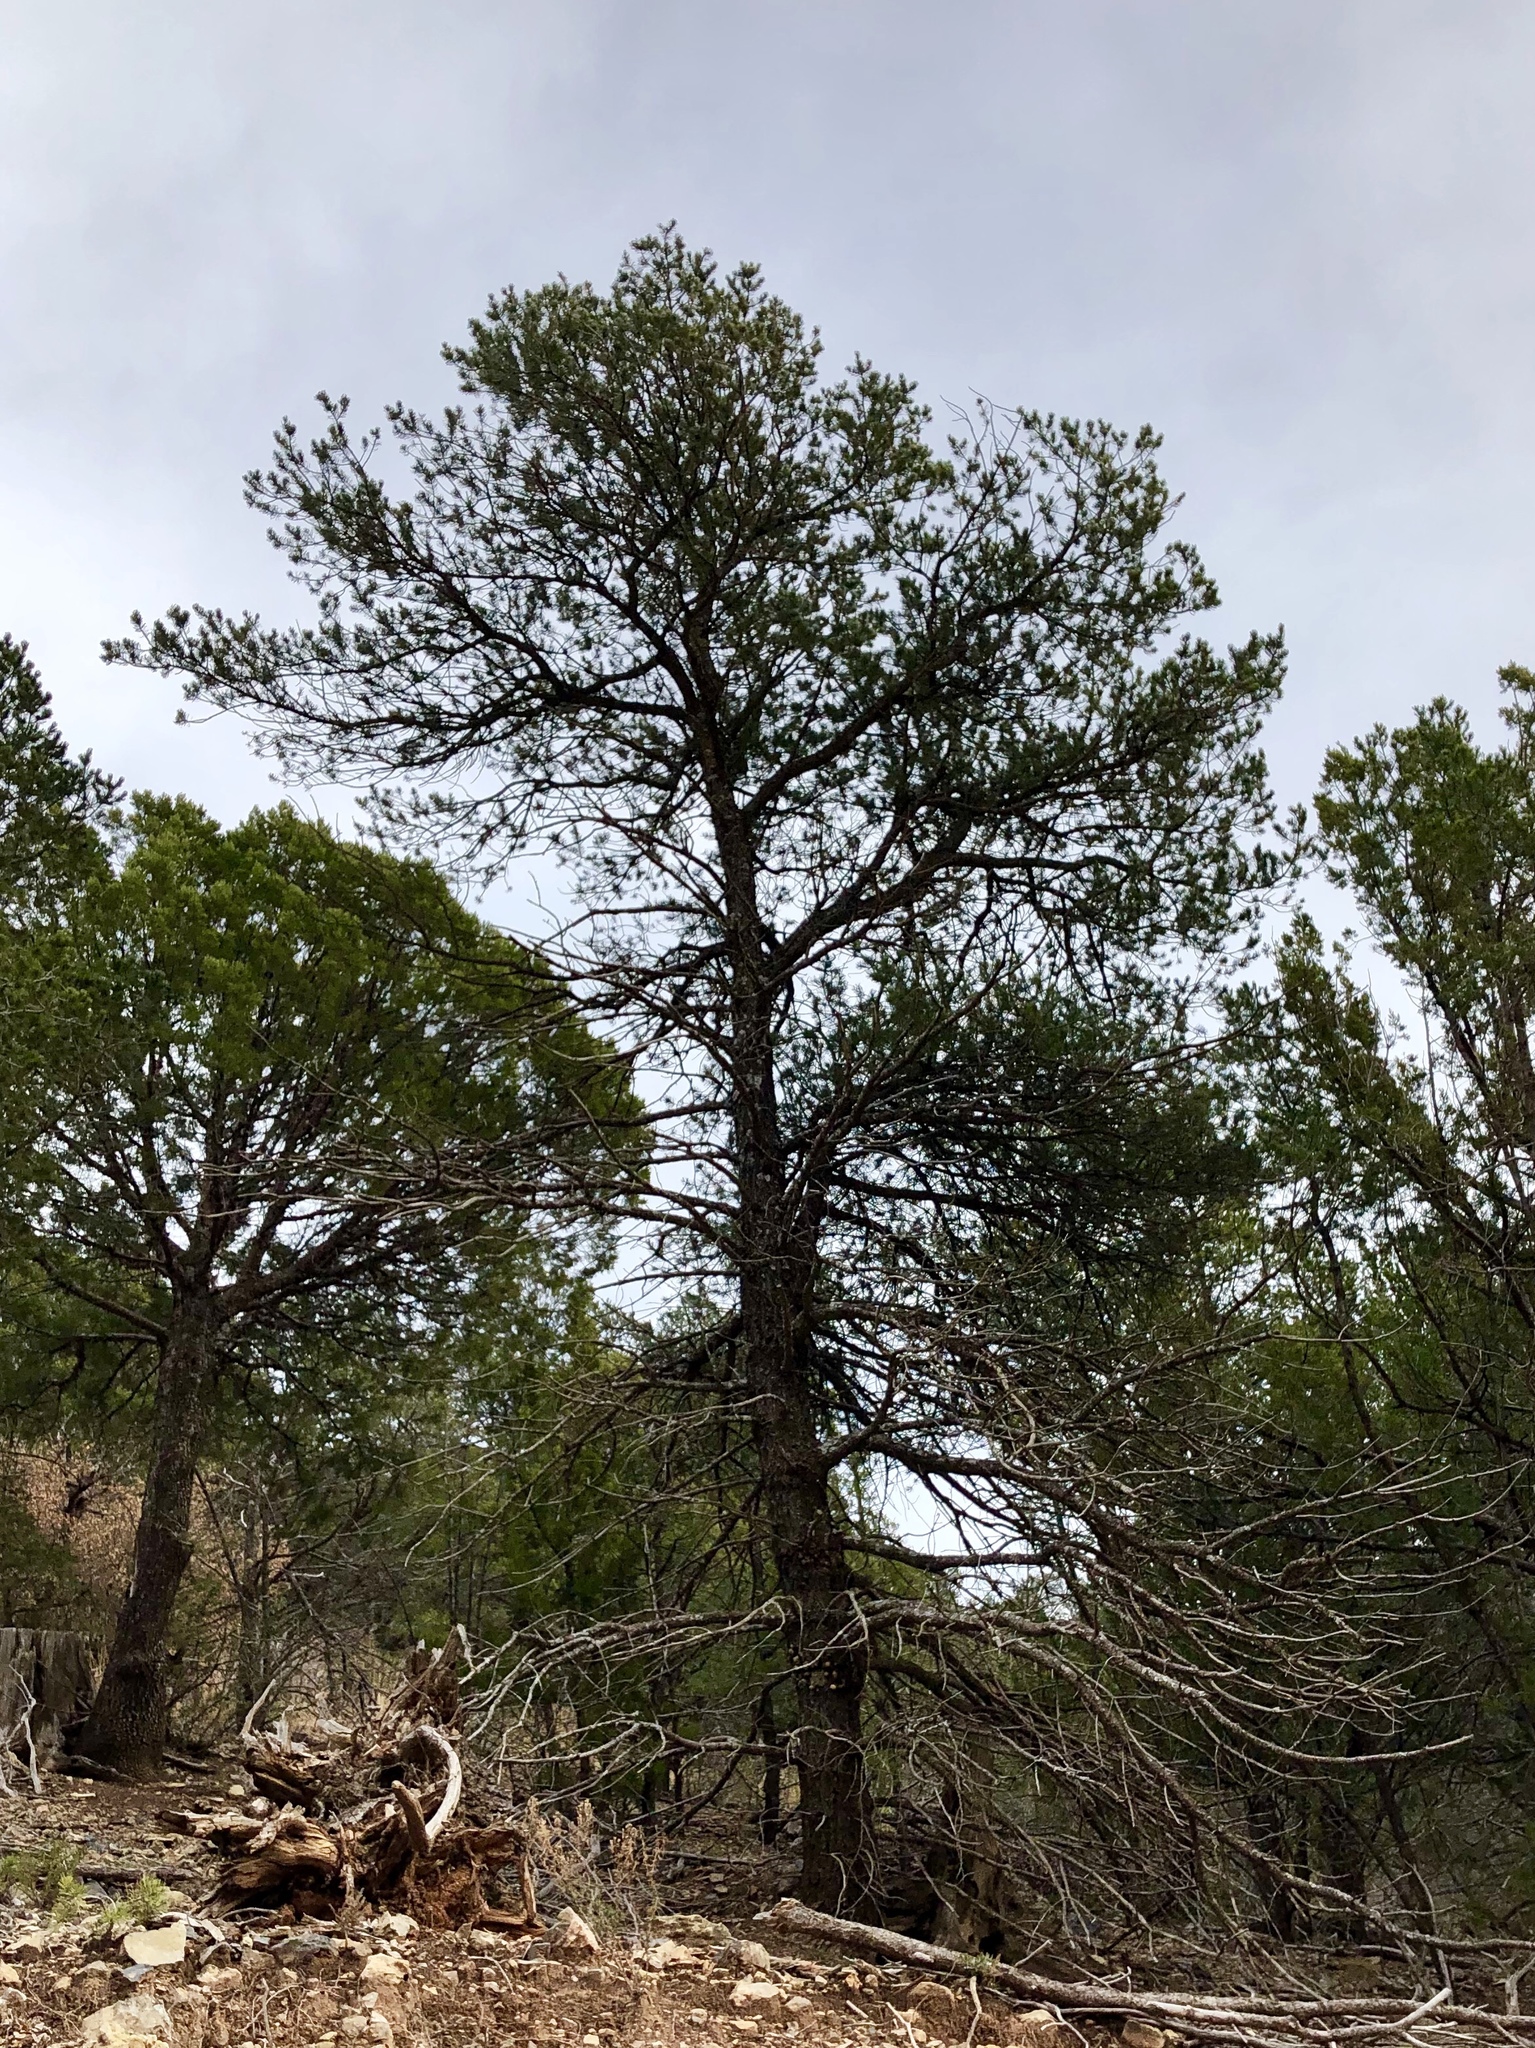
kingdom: Plantae
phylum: Tracheophyta
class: Pinopsida
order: Pinales
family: Pinaceae
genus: Pinus
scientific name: Pinus edulis
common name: Colorado pinyon
